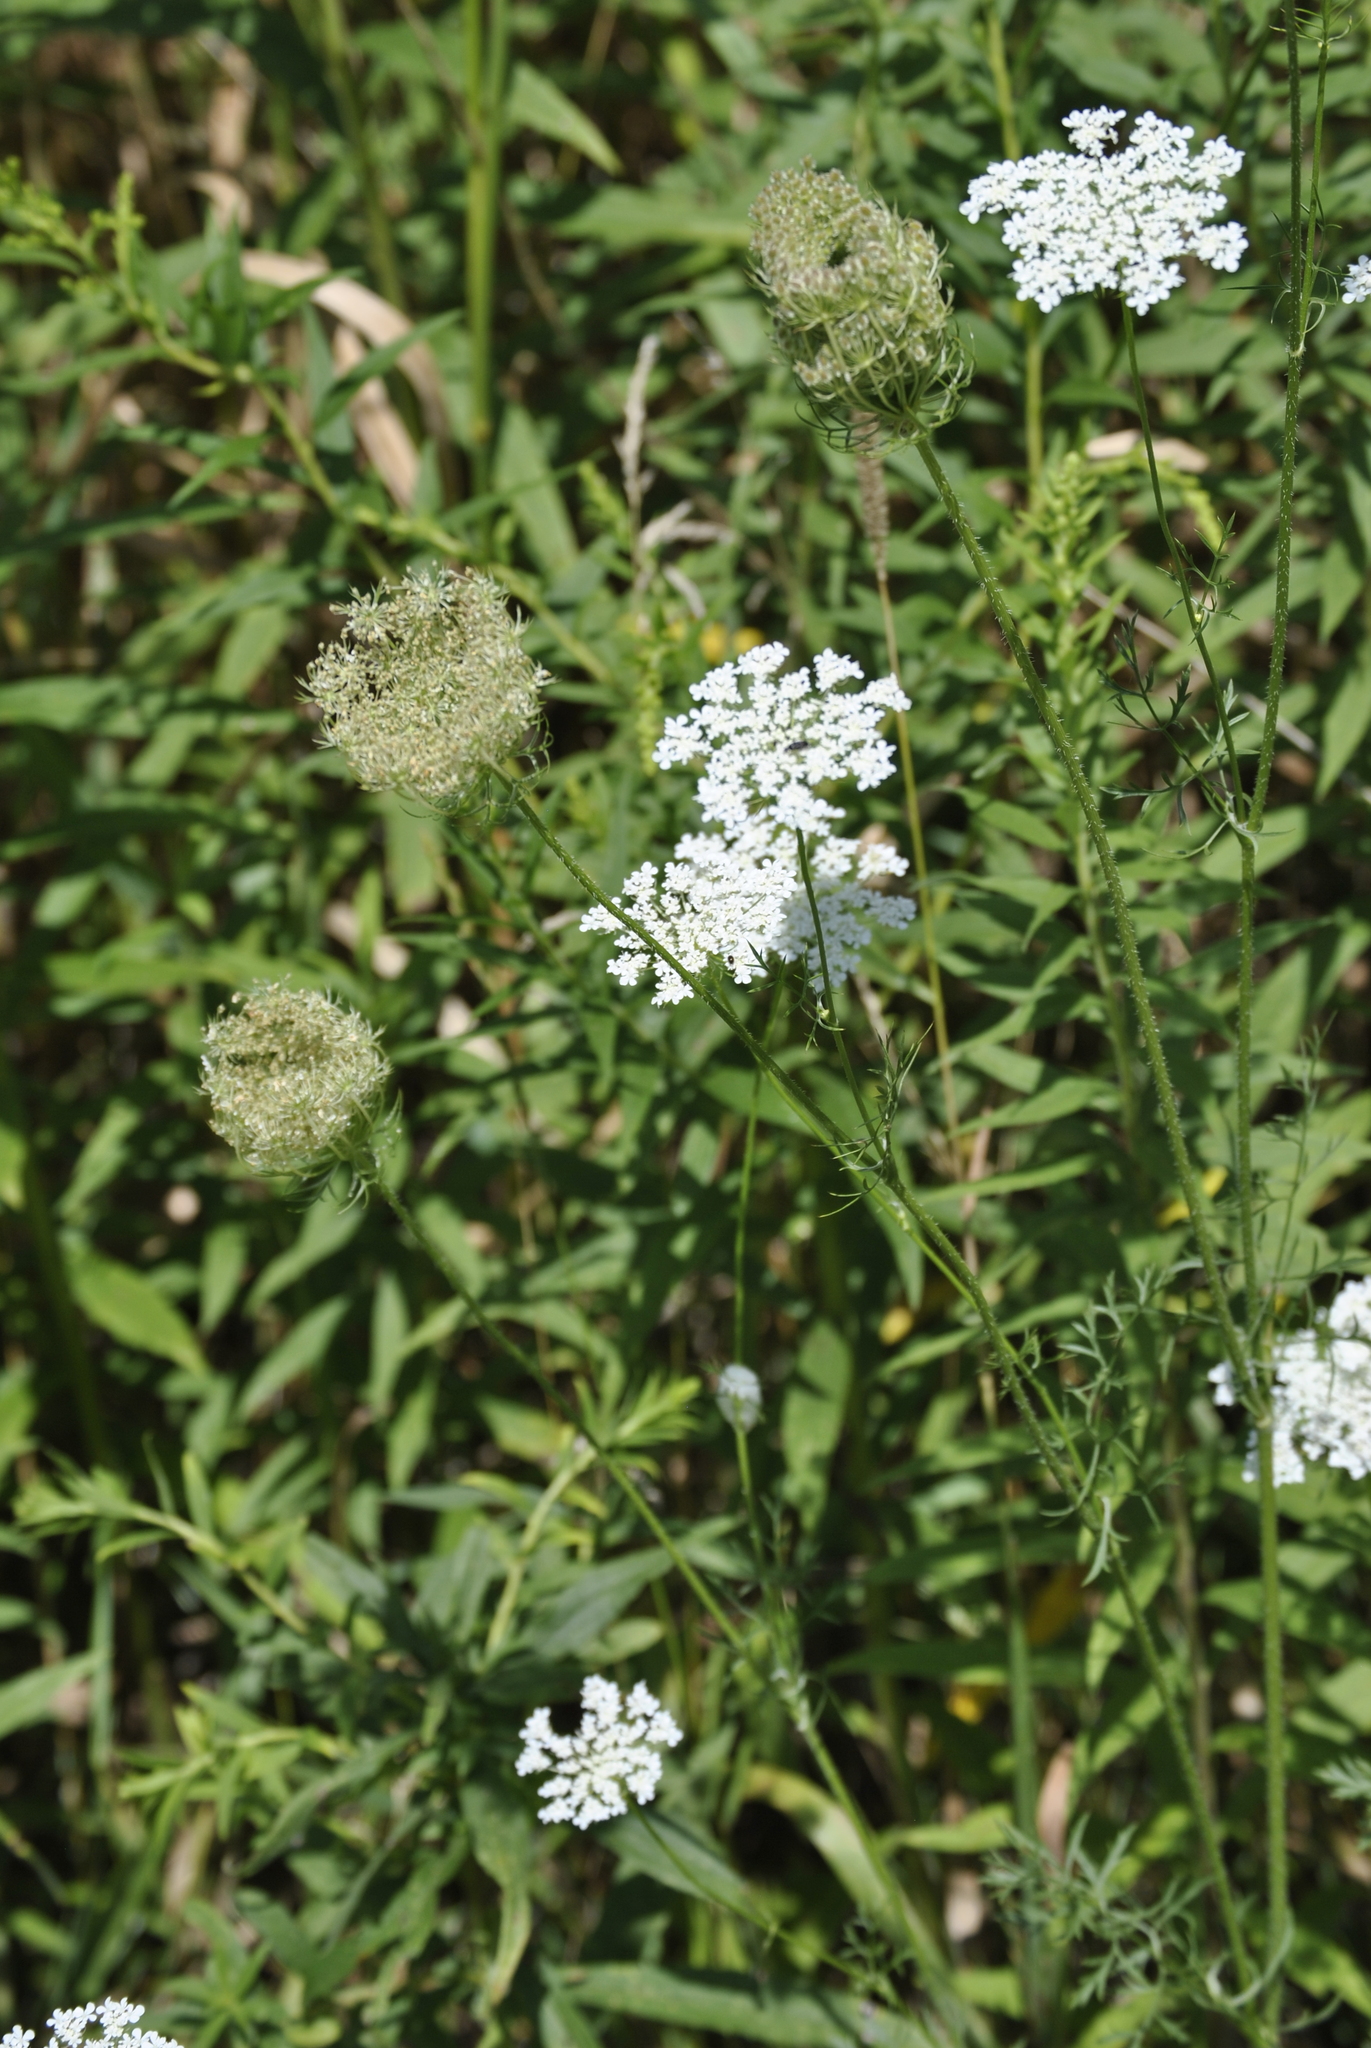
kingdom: Plantae
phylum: Tracheophyta
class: Magnoliopsida
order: Apiales
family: Apiaceae
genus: Daucus
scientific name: Daucus carota
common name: Wild carrot
